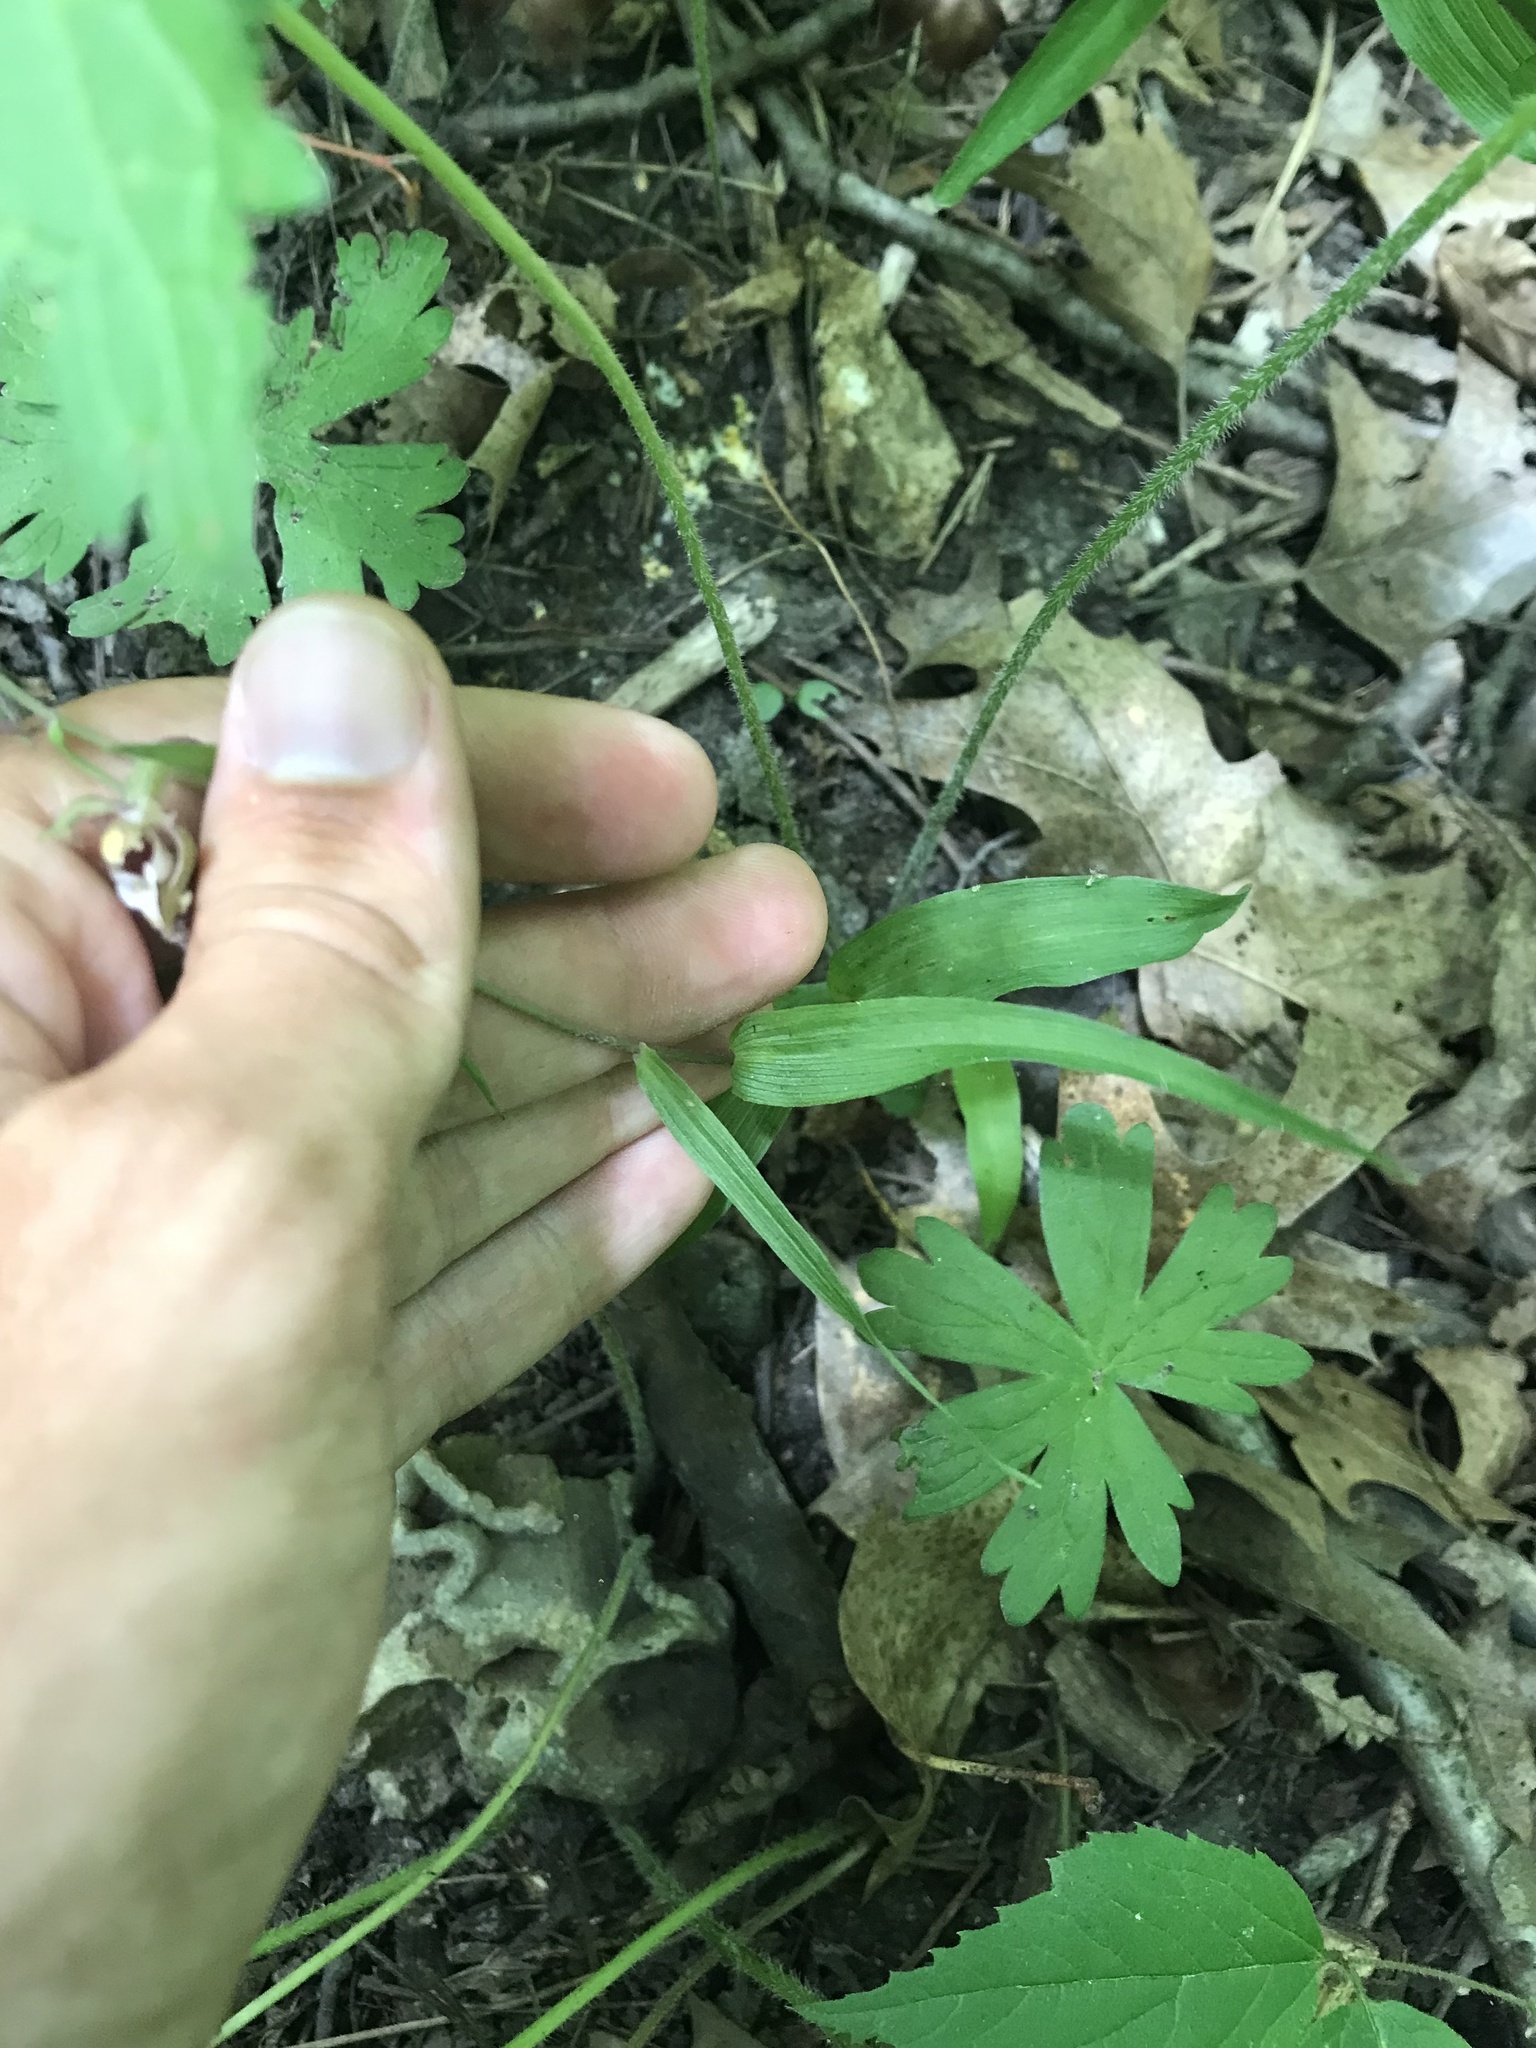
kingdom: Plantae
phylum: Tracheophyta
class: Liliopsida
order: Asparagales
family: Orchidaceae
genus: Epipactis
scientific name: Epipactis helleborine
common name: Broad-leaved helleborine
